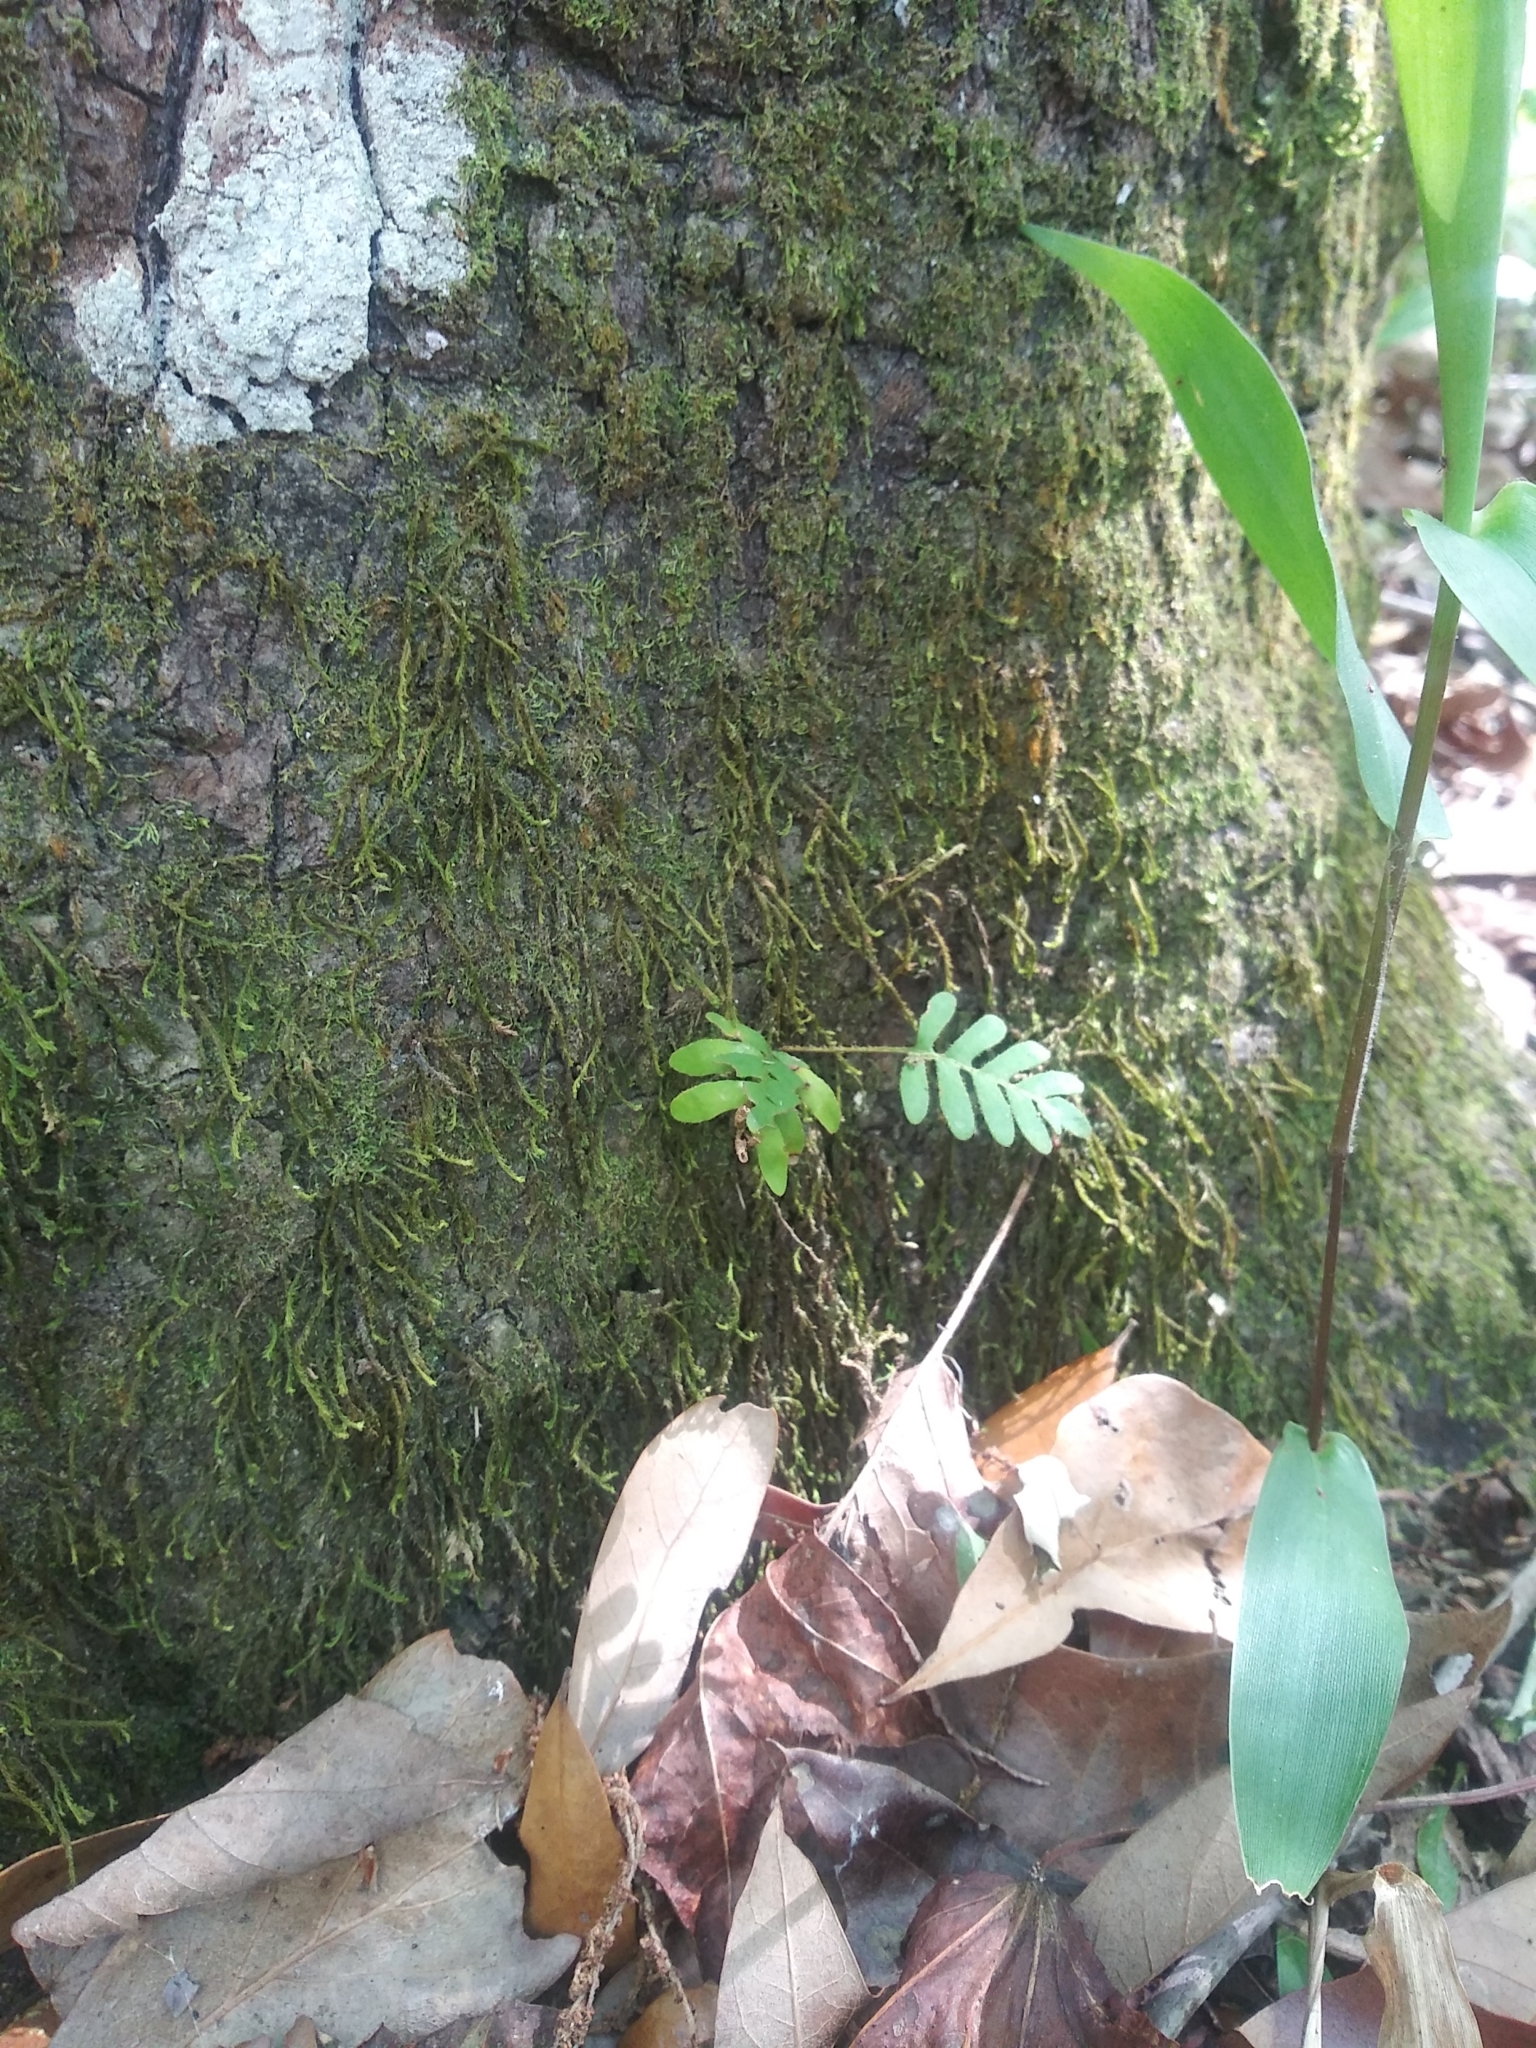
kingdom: Plantae
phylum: Tracheophyta
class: Polypodiopsida
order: Polypodiales
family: Polypodiaceae
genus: Pleopeltis
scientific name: Pleopeltis michauxiana
